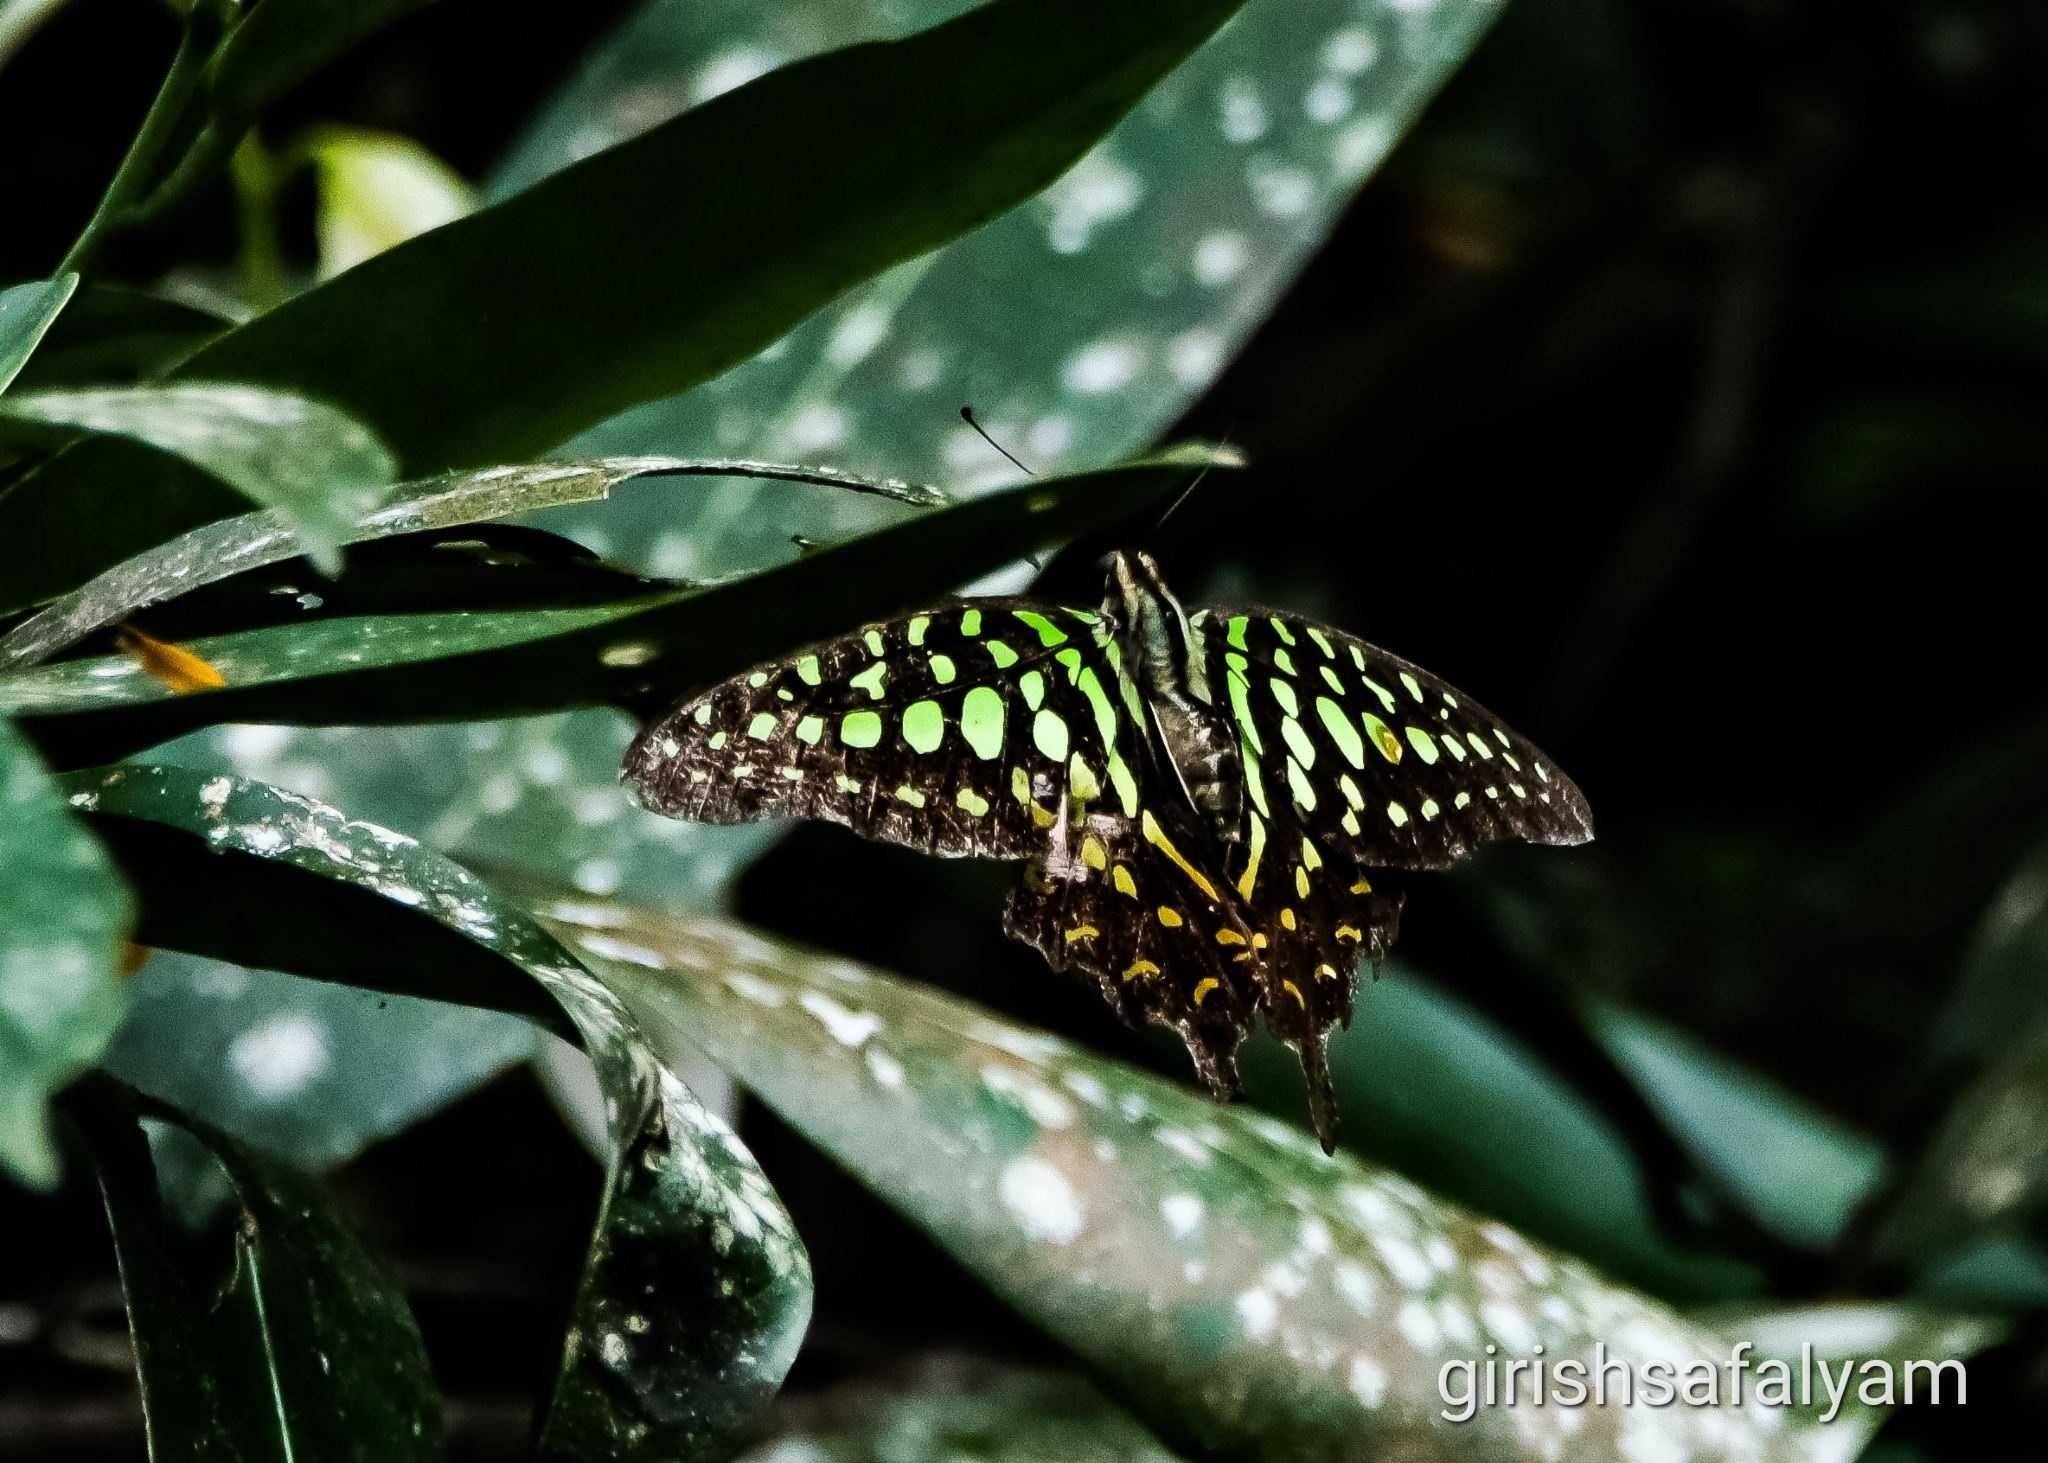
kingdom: Animalia
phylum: Arthropoda
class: Insecta
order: Lepidoptera
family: Papilionidae
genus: Graphium
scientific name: Graphium agamemnon
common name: Tailed jay
